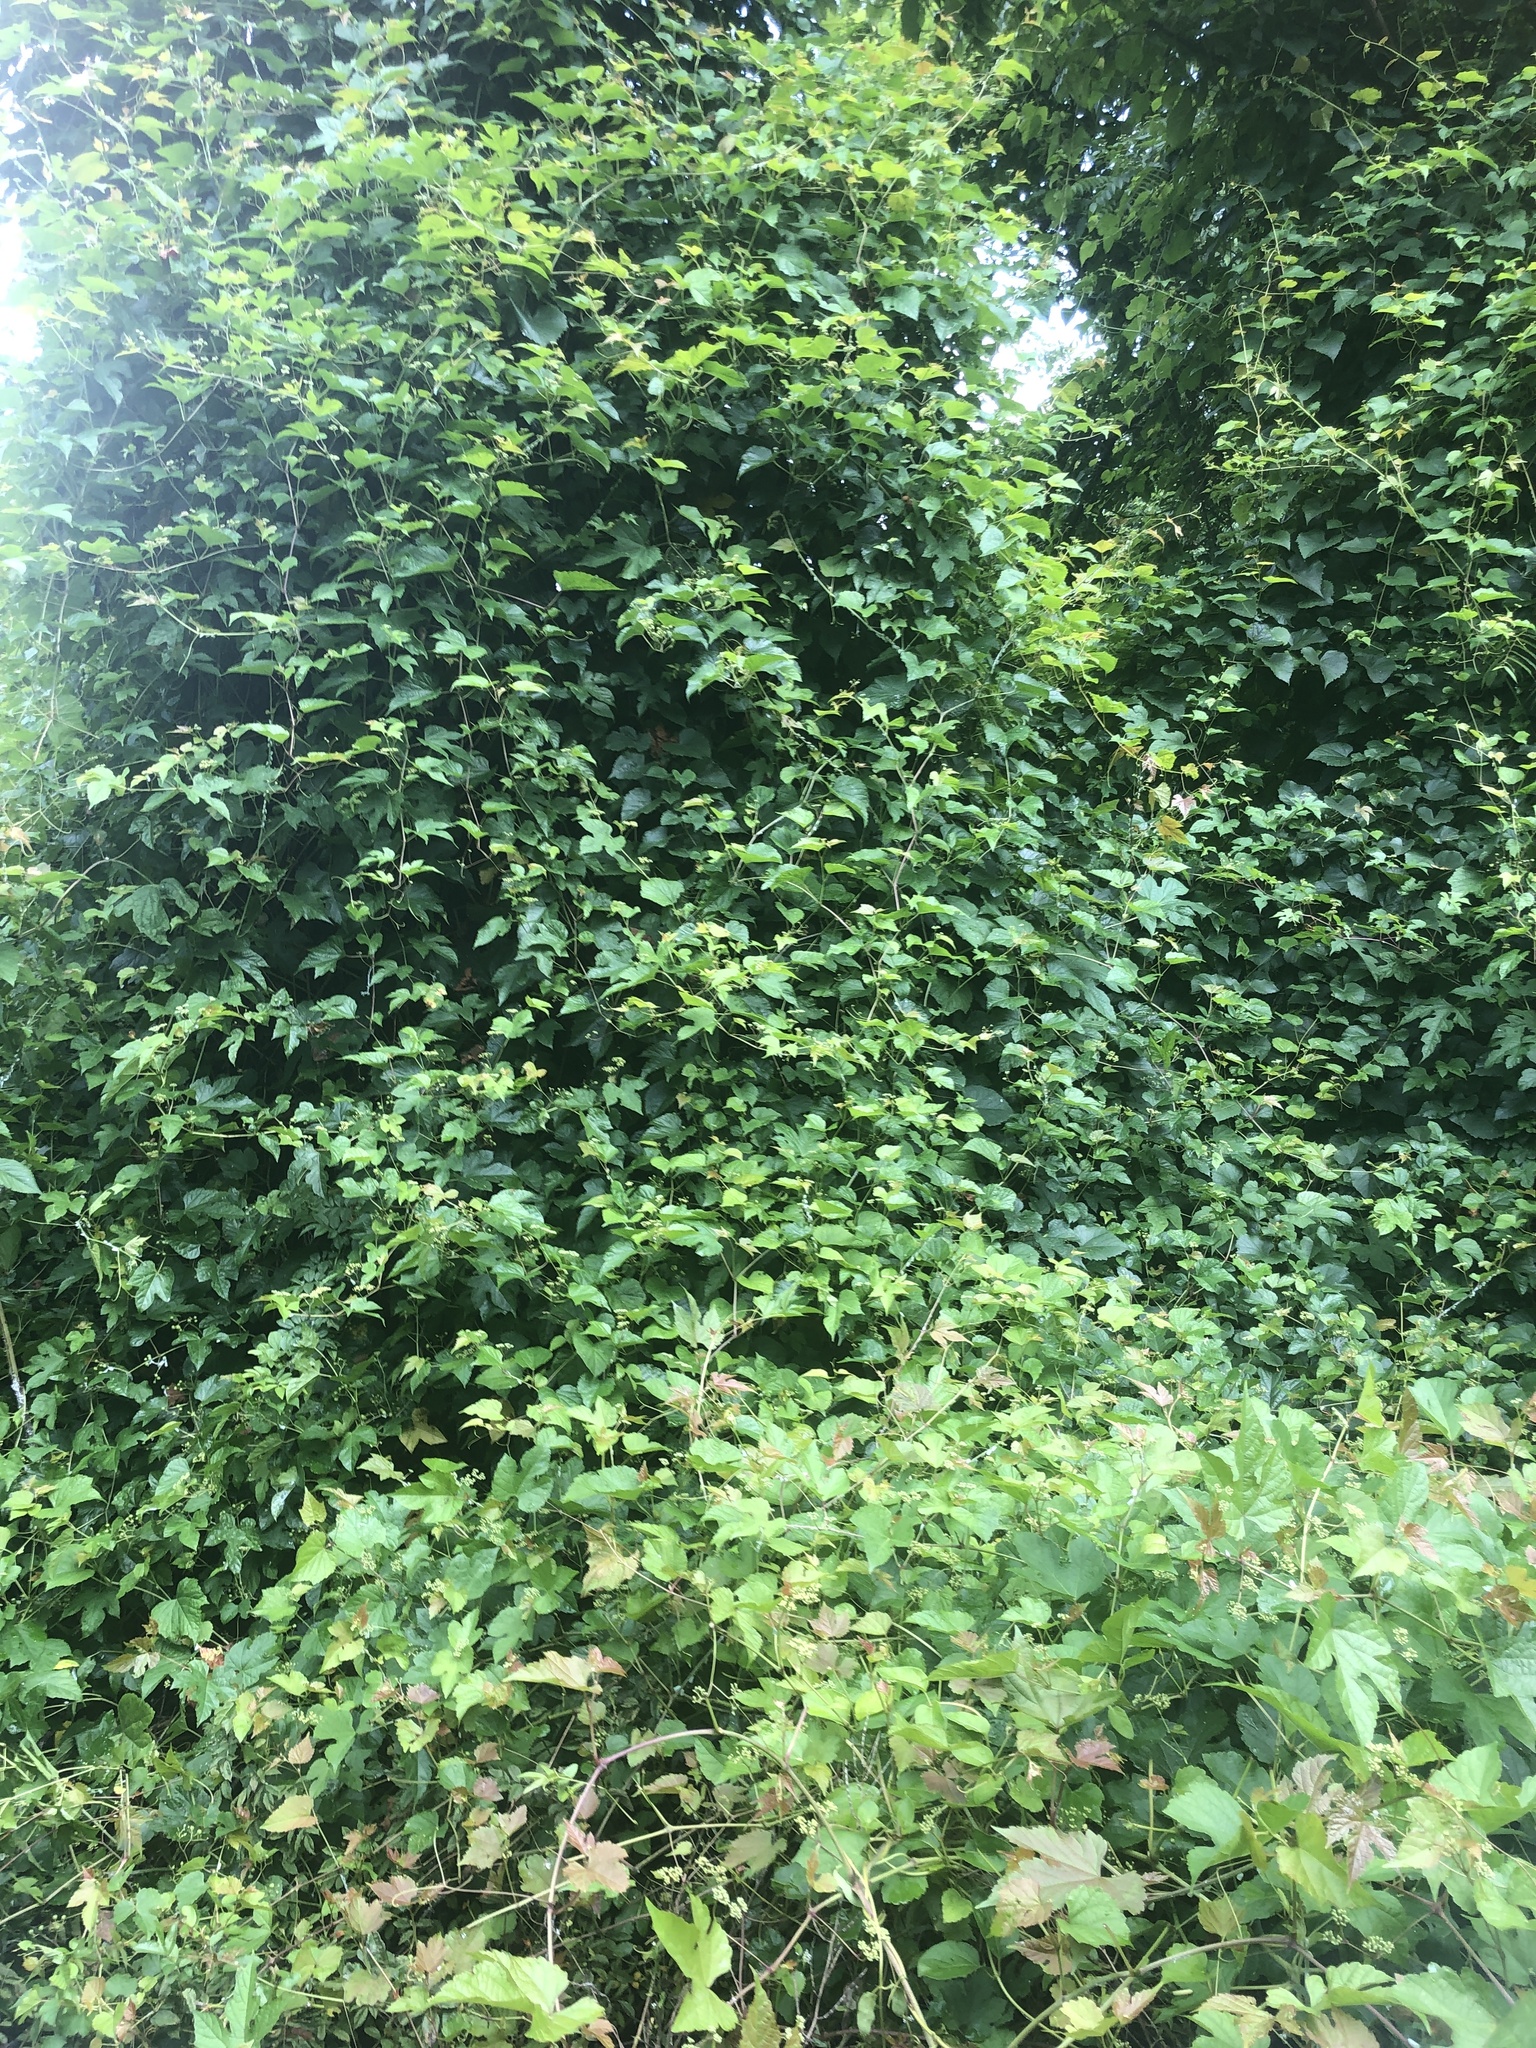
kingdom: Plantae
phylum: Tracheophyta
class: Magnoliopsida
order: Vitales
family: Vitaceae
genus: Ampelopsis
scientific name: Ampelopsis glandulosa
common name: Amur peppervine
